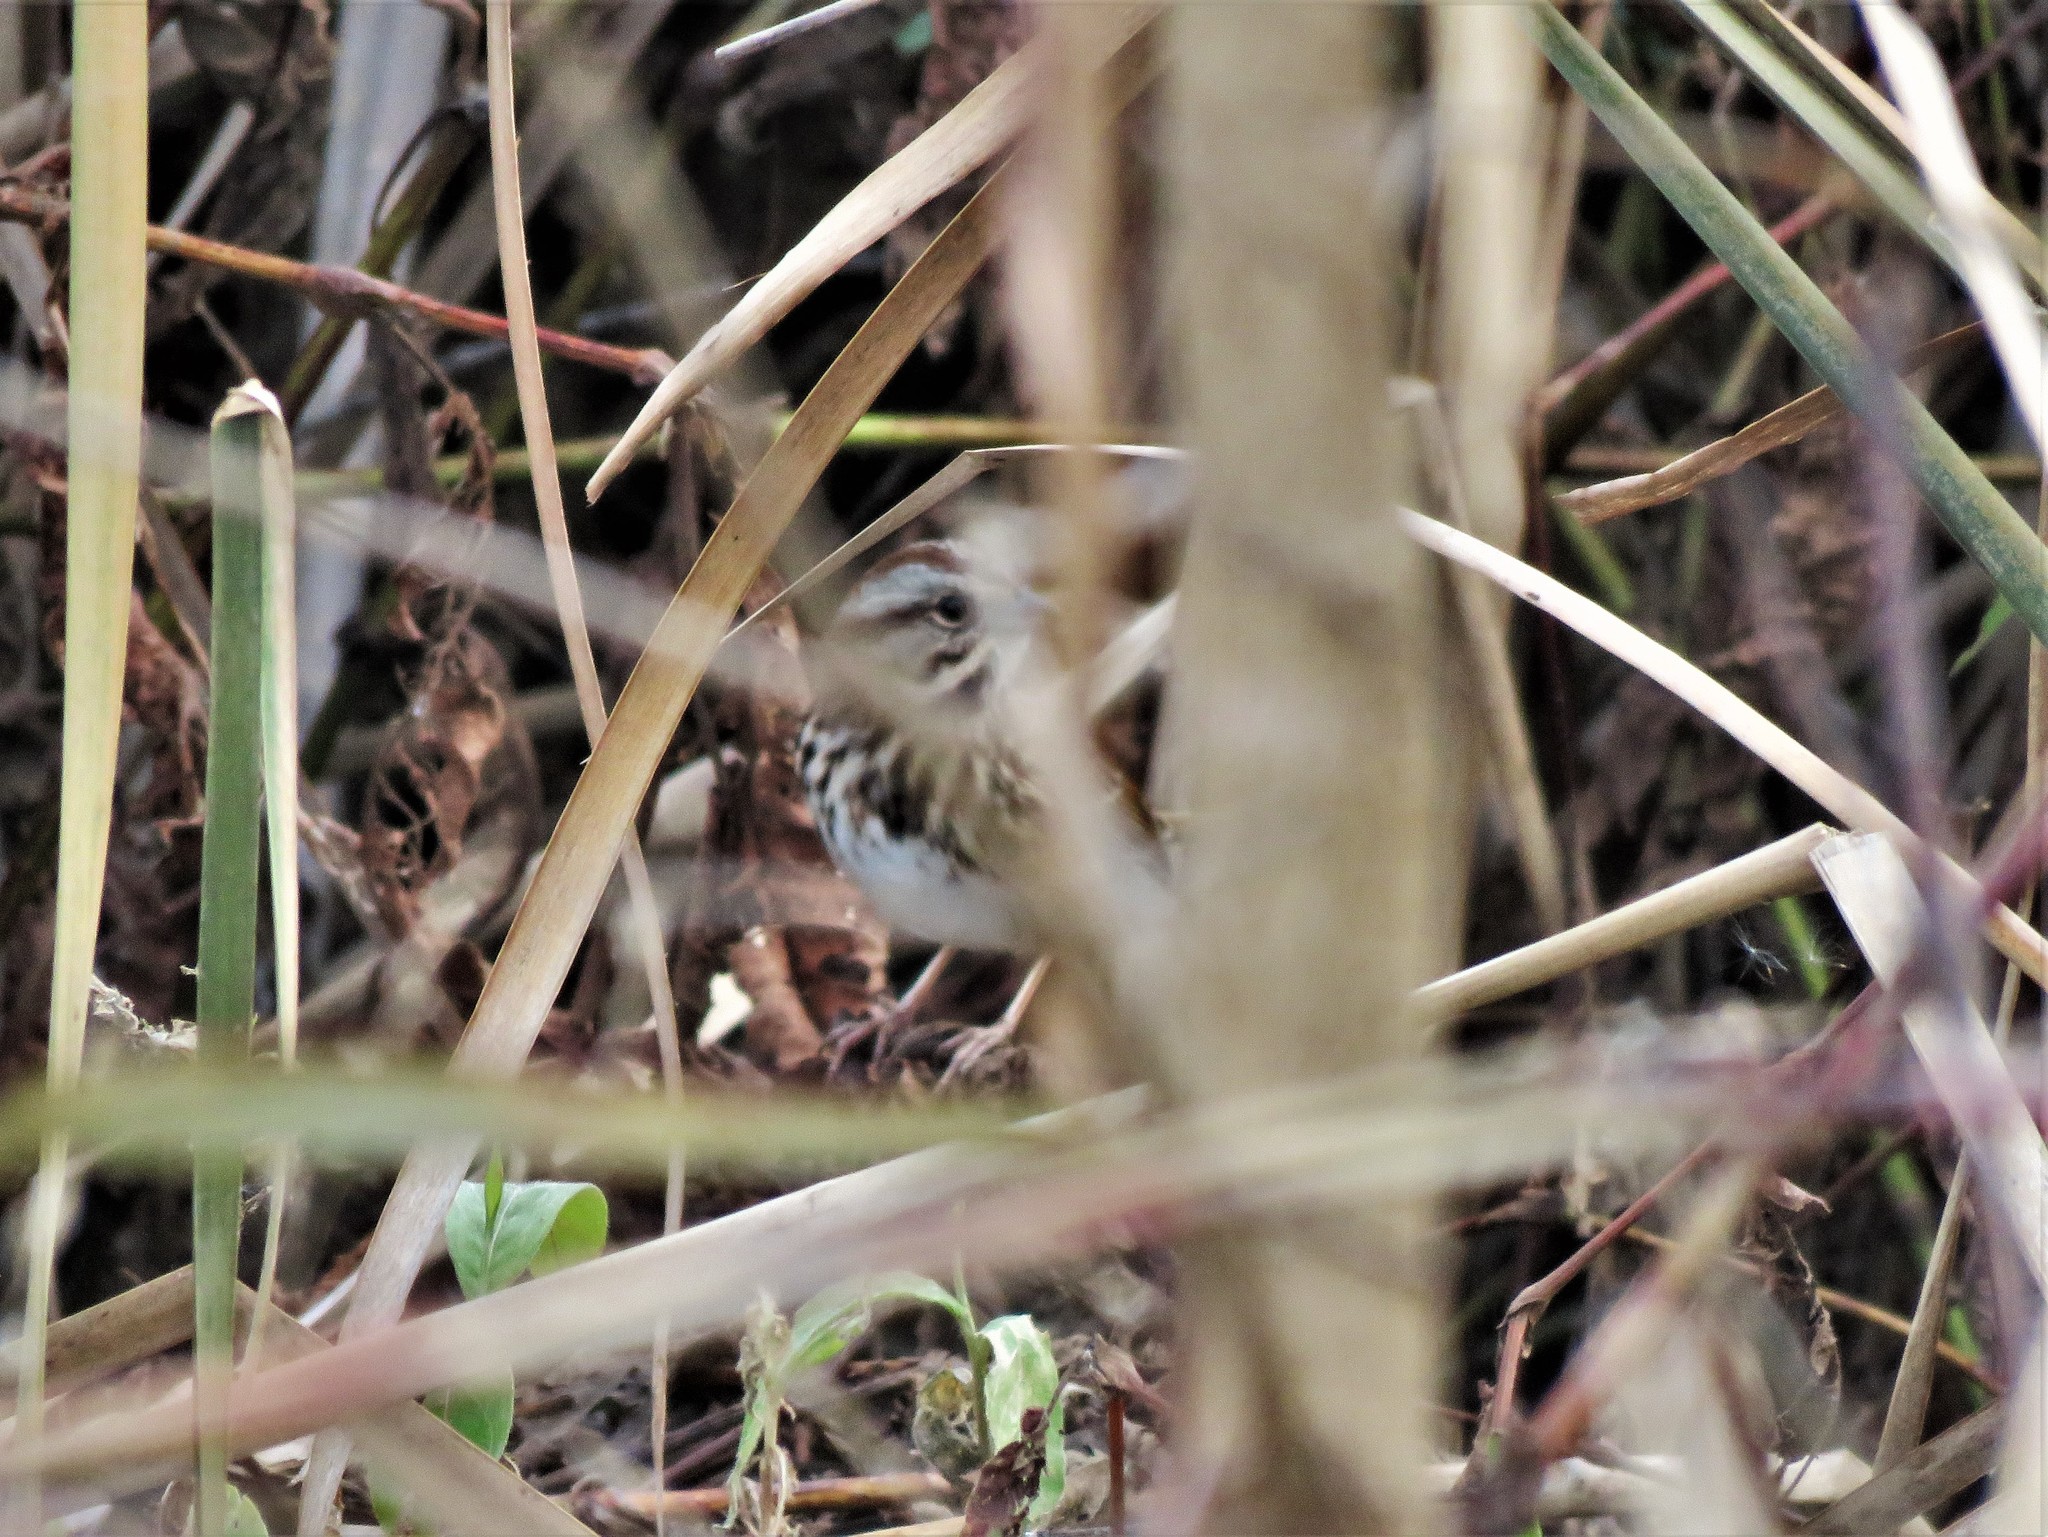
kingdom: Animalia
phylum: Chordata
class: Aves
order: Passeriformes
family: Passerellidae
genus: Melospiza
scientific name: Melospiza melodia
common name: Song sparrow
